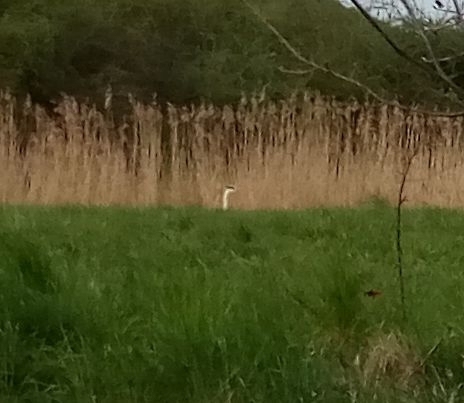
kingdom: Animalia
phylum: Chordata
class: Aves
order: Pelecaniformes
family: Ardeidae
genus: Ardea
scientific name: Ardea cinerea
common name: Grey heron
